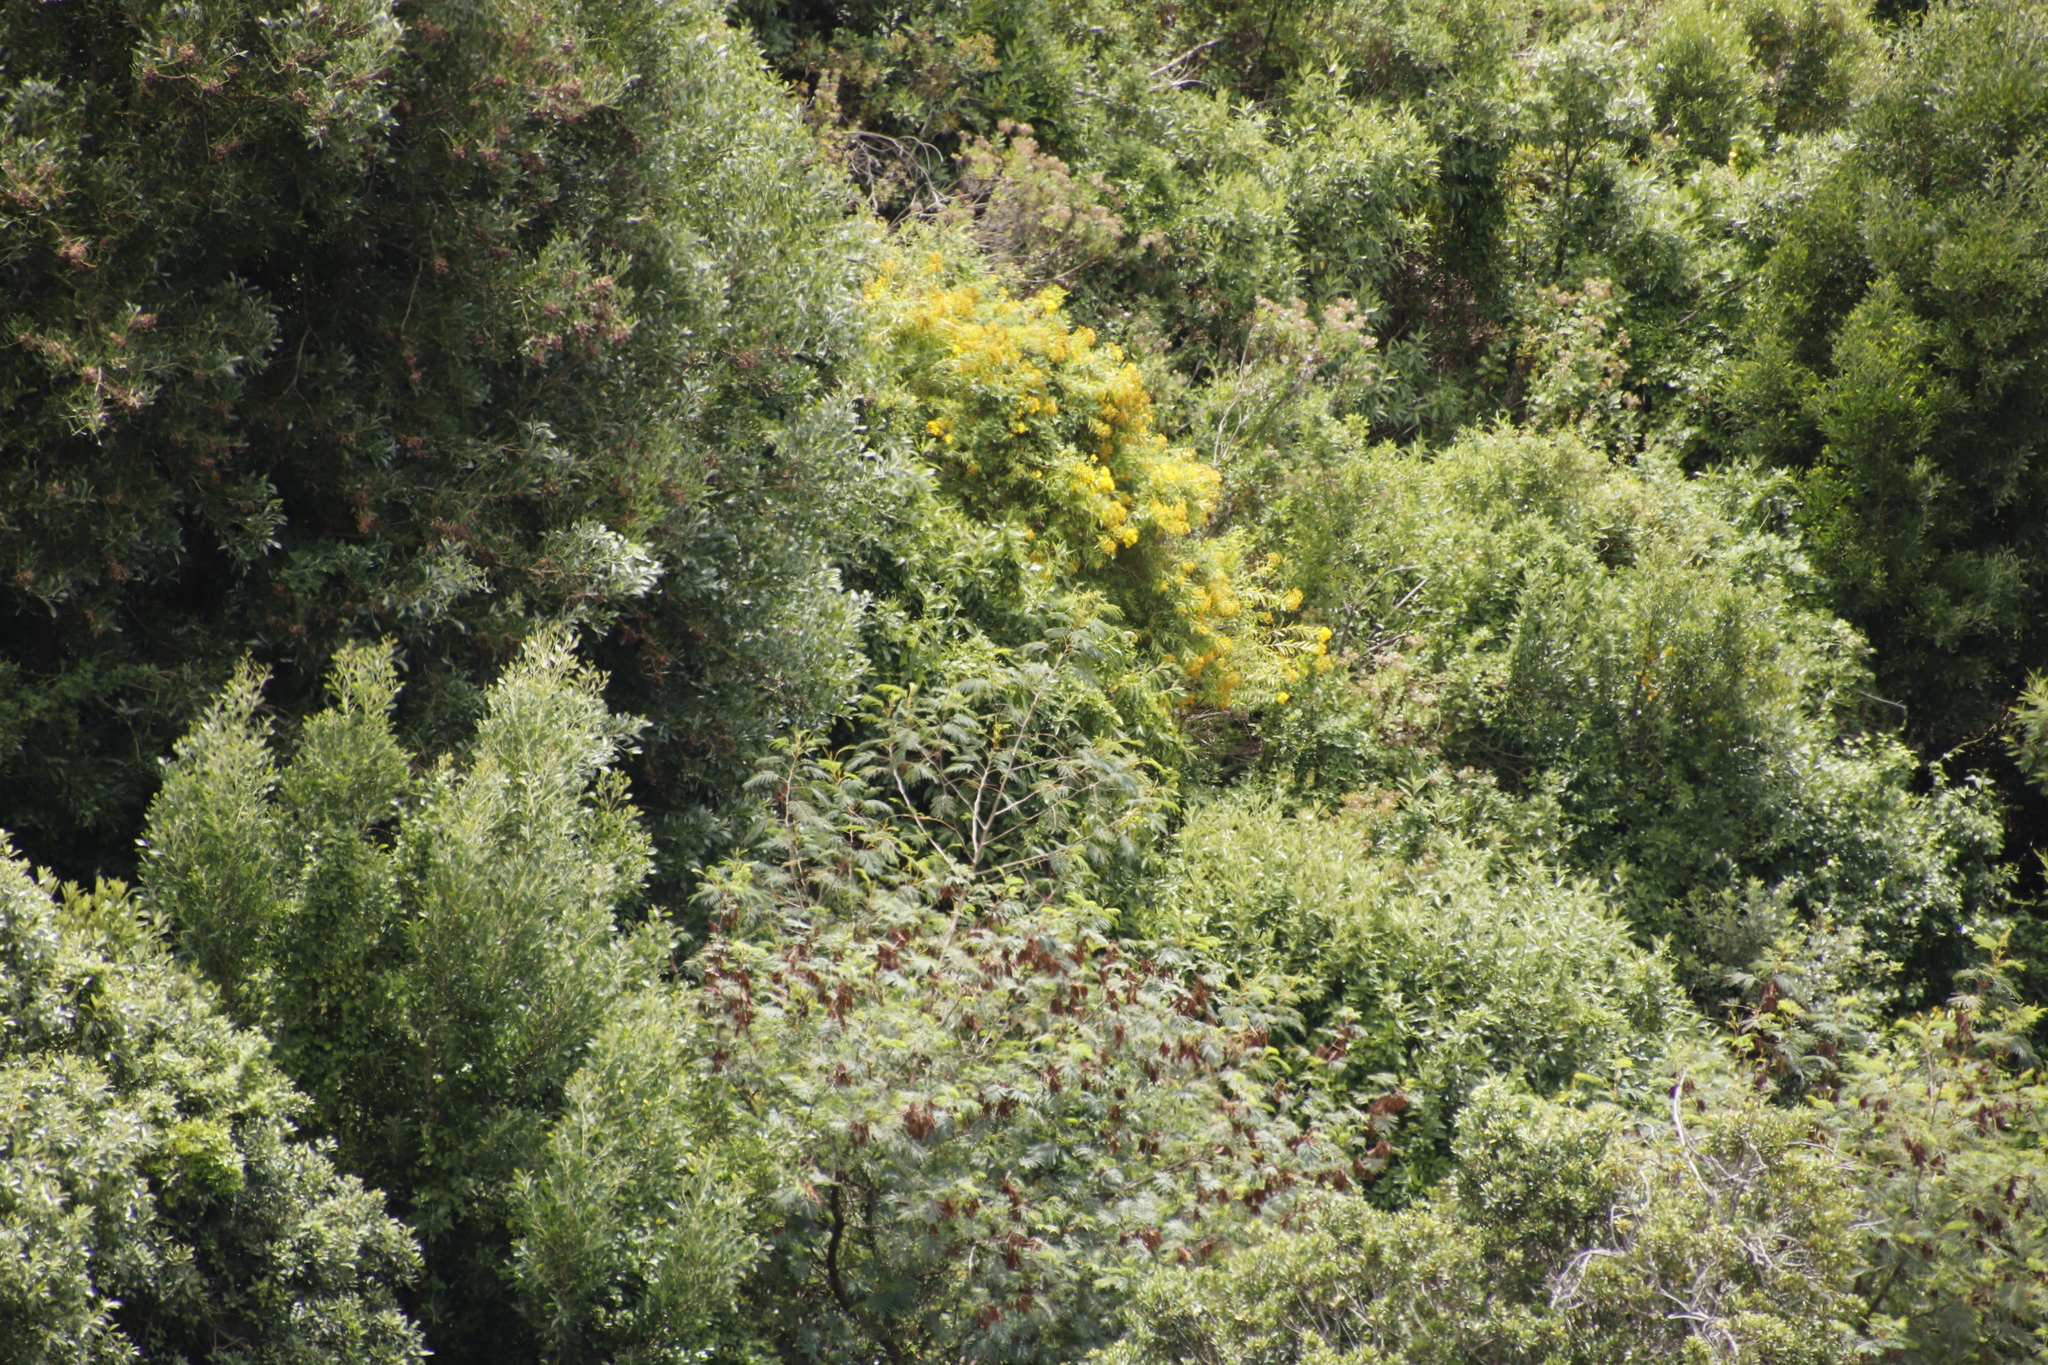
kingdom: Plantae
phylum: Tracheophyta
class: Magnoliopsida
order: Fabales
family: Fabaceae
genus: Paraserianthes
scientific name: Paraserianthes lophantha
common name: Plume albizia
